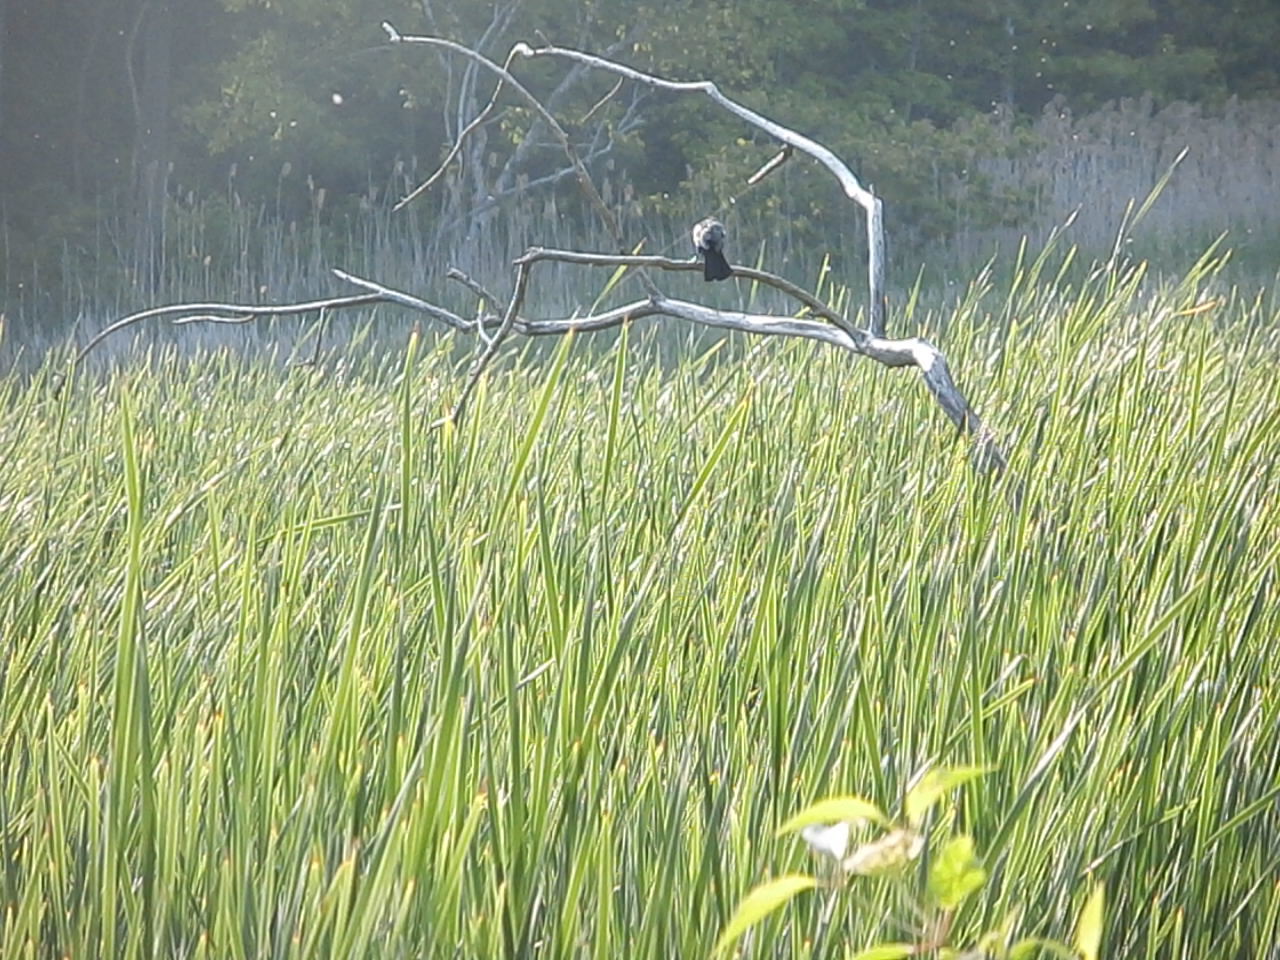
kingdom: Animalia
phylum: Chordata
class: Aves
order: Passeriformes
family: Icteridae
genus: Agelaius
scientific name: Agelaius phoeniceus
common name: Red-winged blackbird
